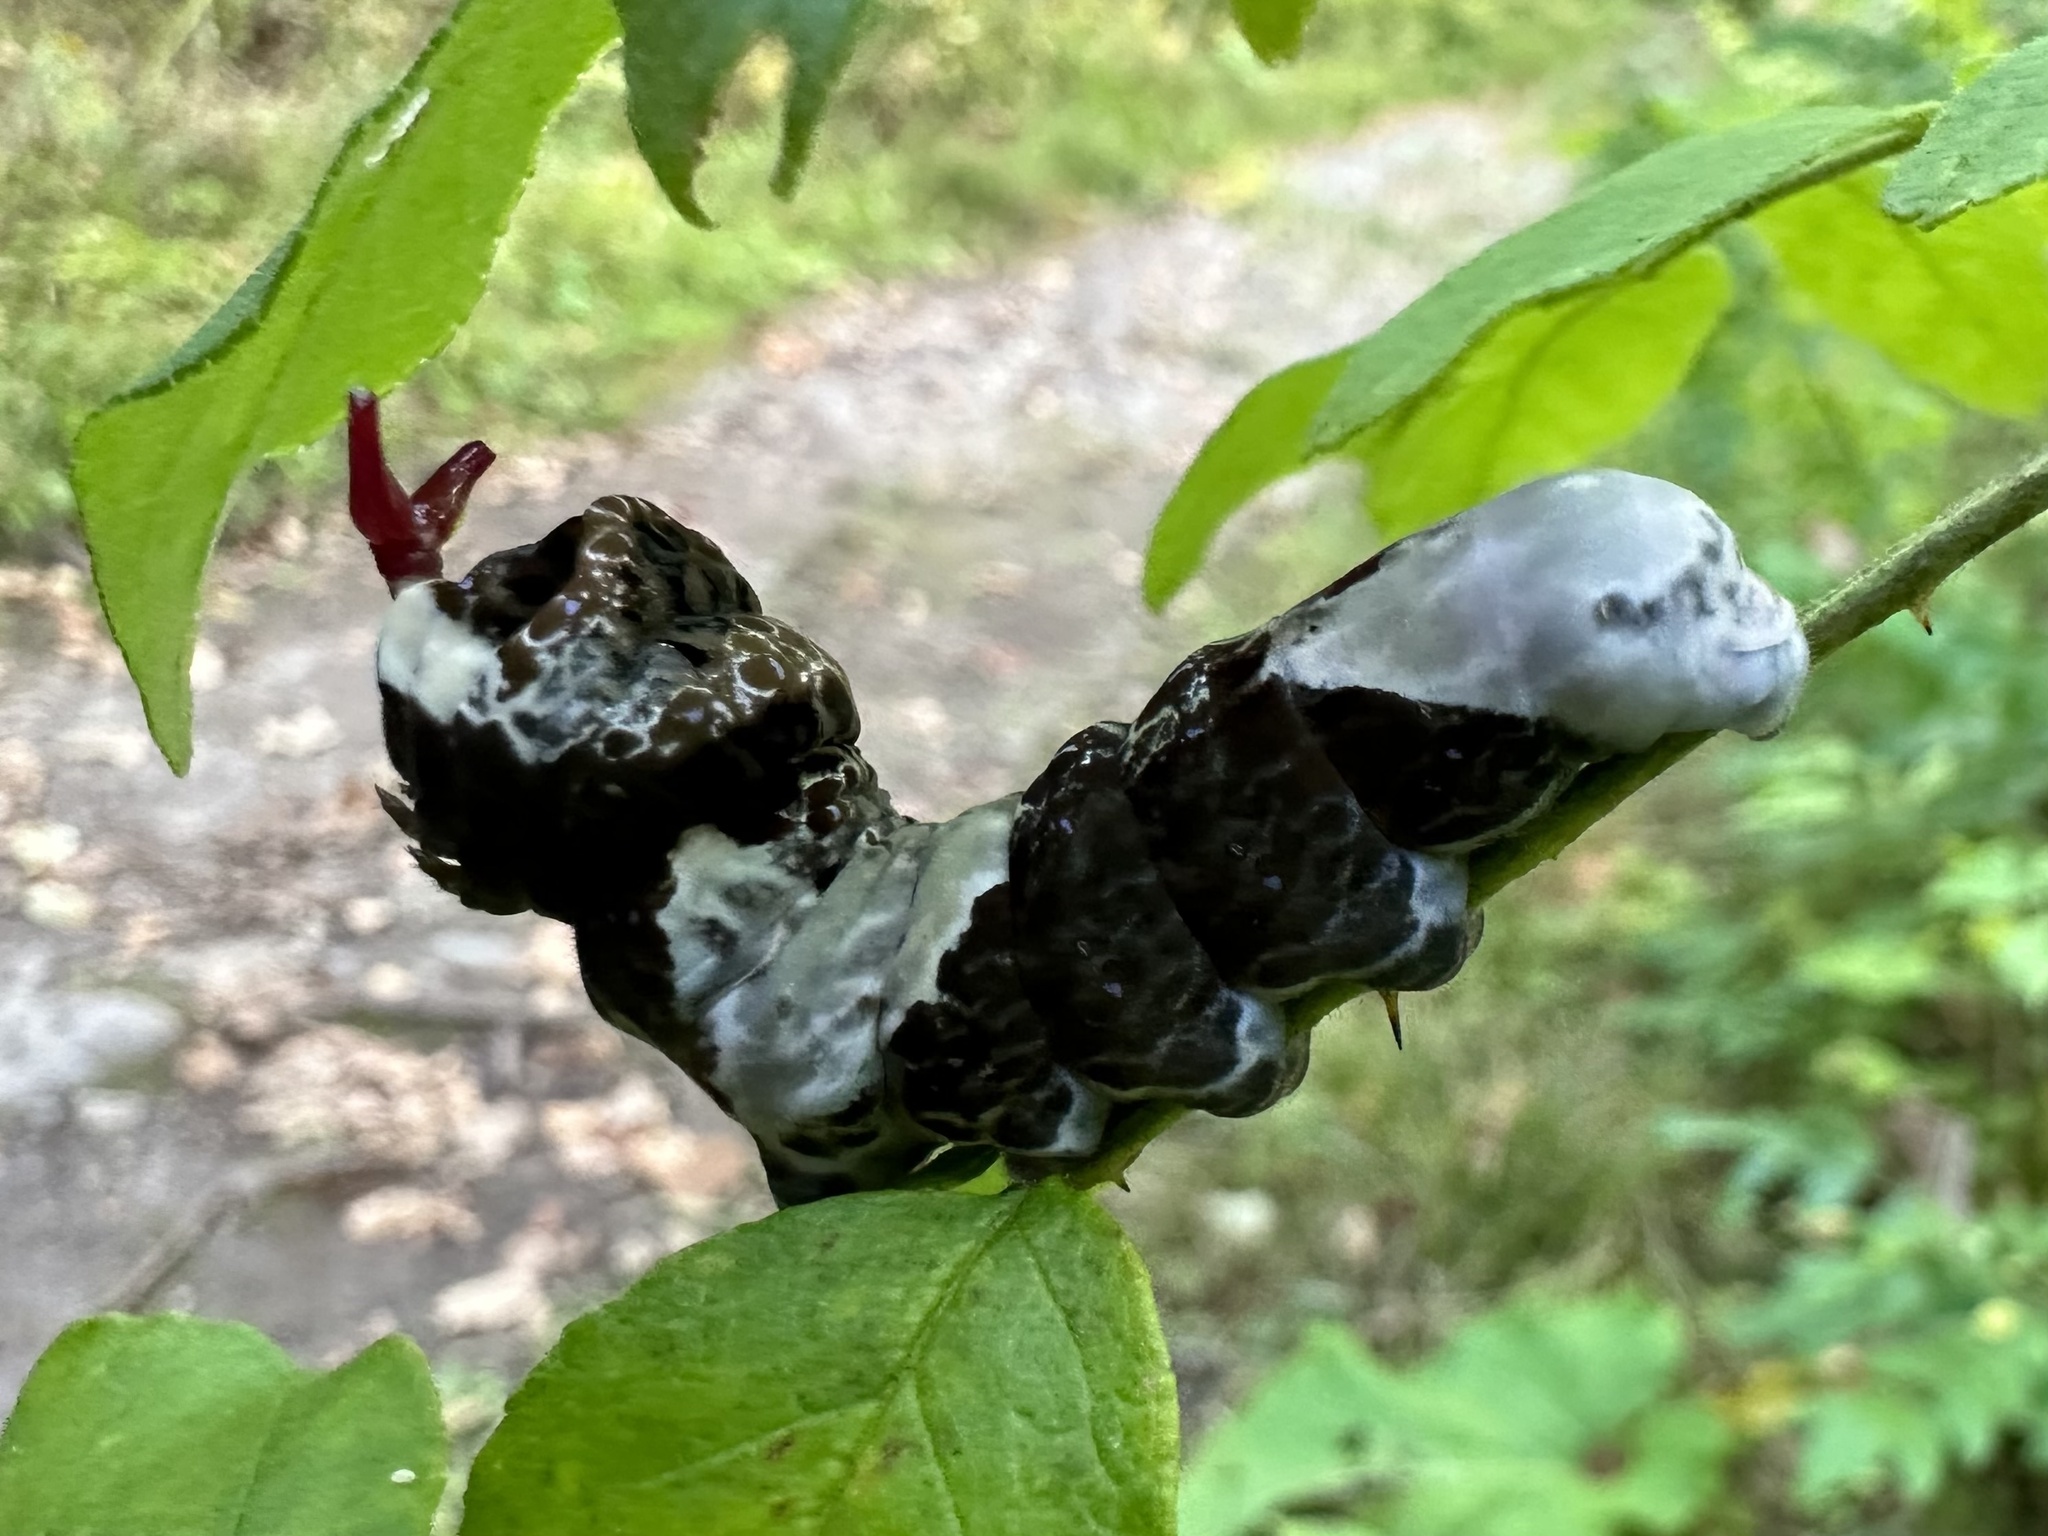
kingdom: Animalia
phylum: Arthropoda
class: Insecta
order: Lepidoptera
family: Papilionidae
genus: Papilio
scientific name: Papilio cresphontes
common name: Giant swallowtail
